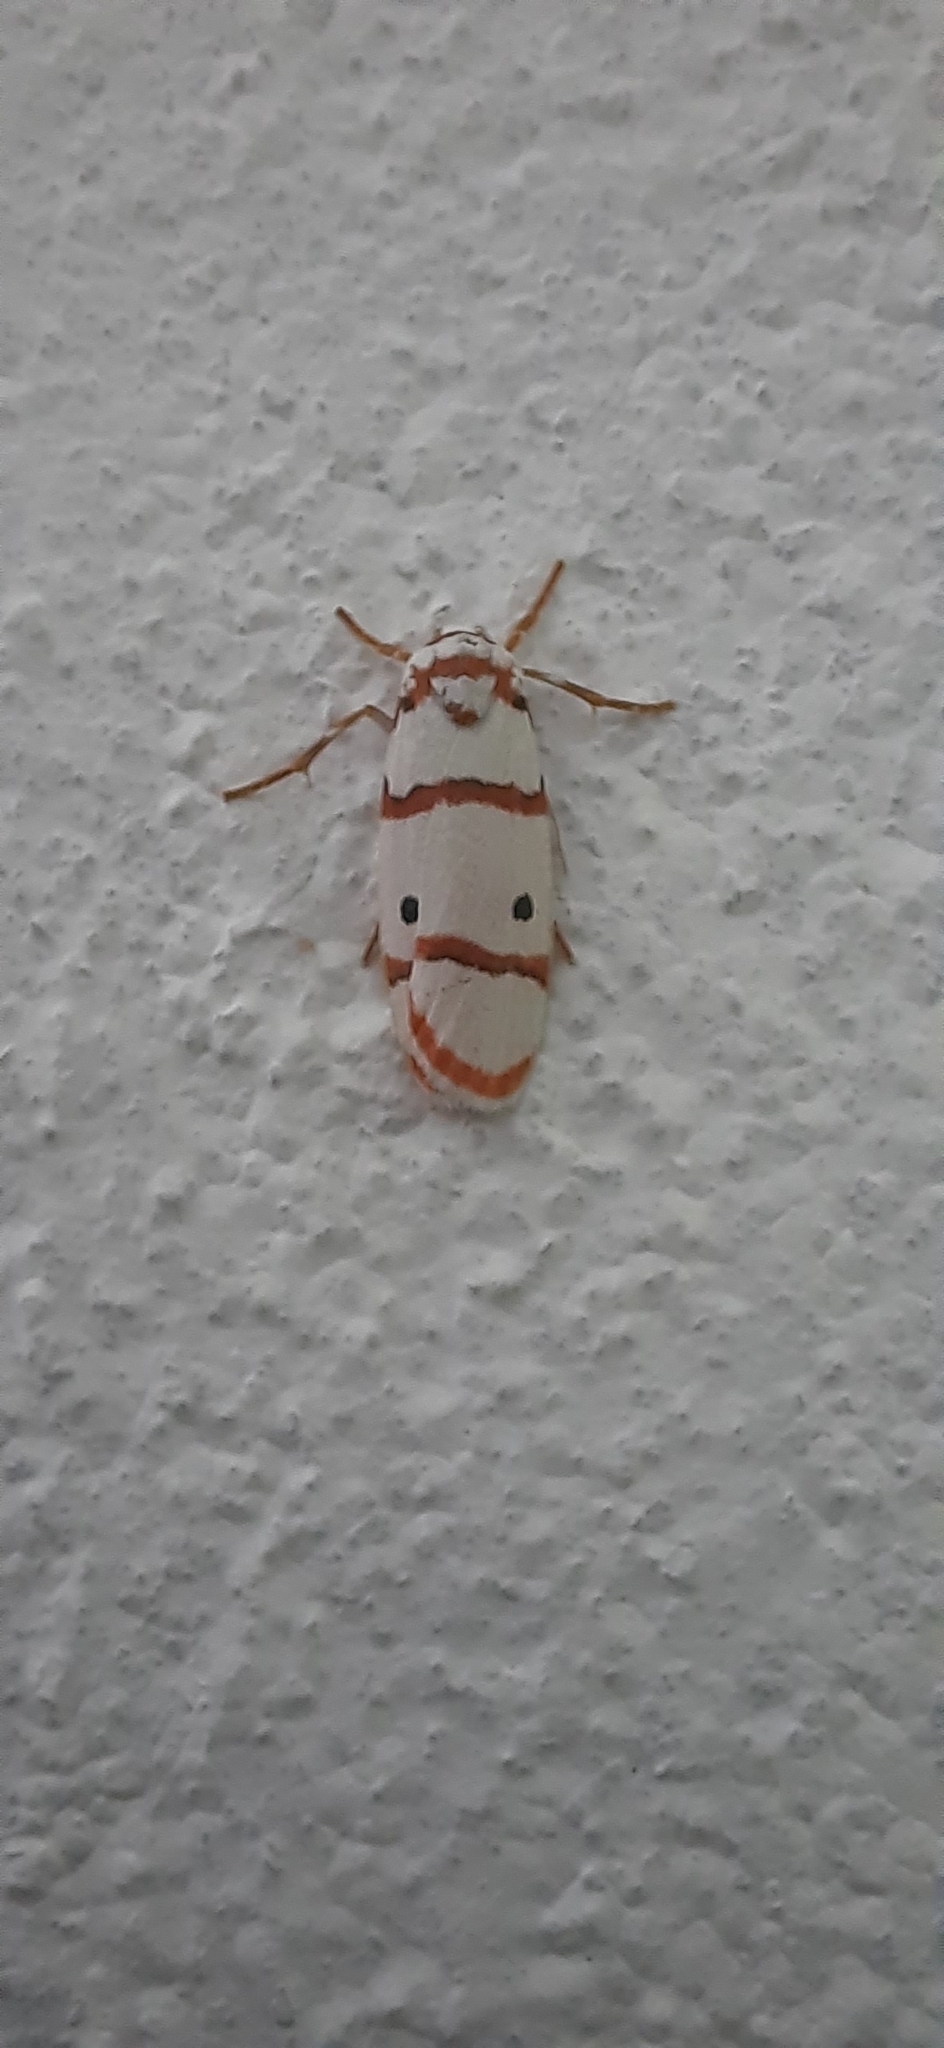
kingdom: Animalia
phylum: Arthropoda
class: Insecta
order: Lepidoptera
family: Erebidae
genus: Cyana
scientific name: Cyana peregrina
